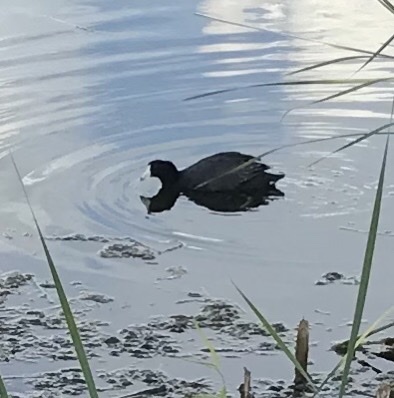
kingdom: Animalia
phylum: Chordata
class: Aves
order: Gruiformes
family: Rallidae
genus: Fulica
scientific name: Fulica americana
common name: American coot
